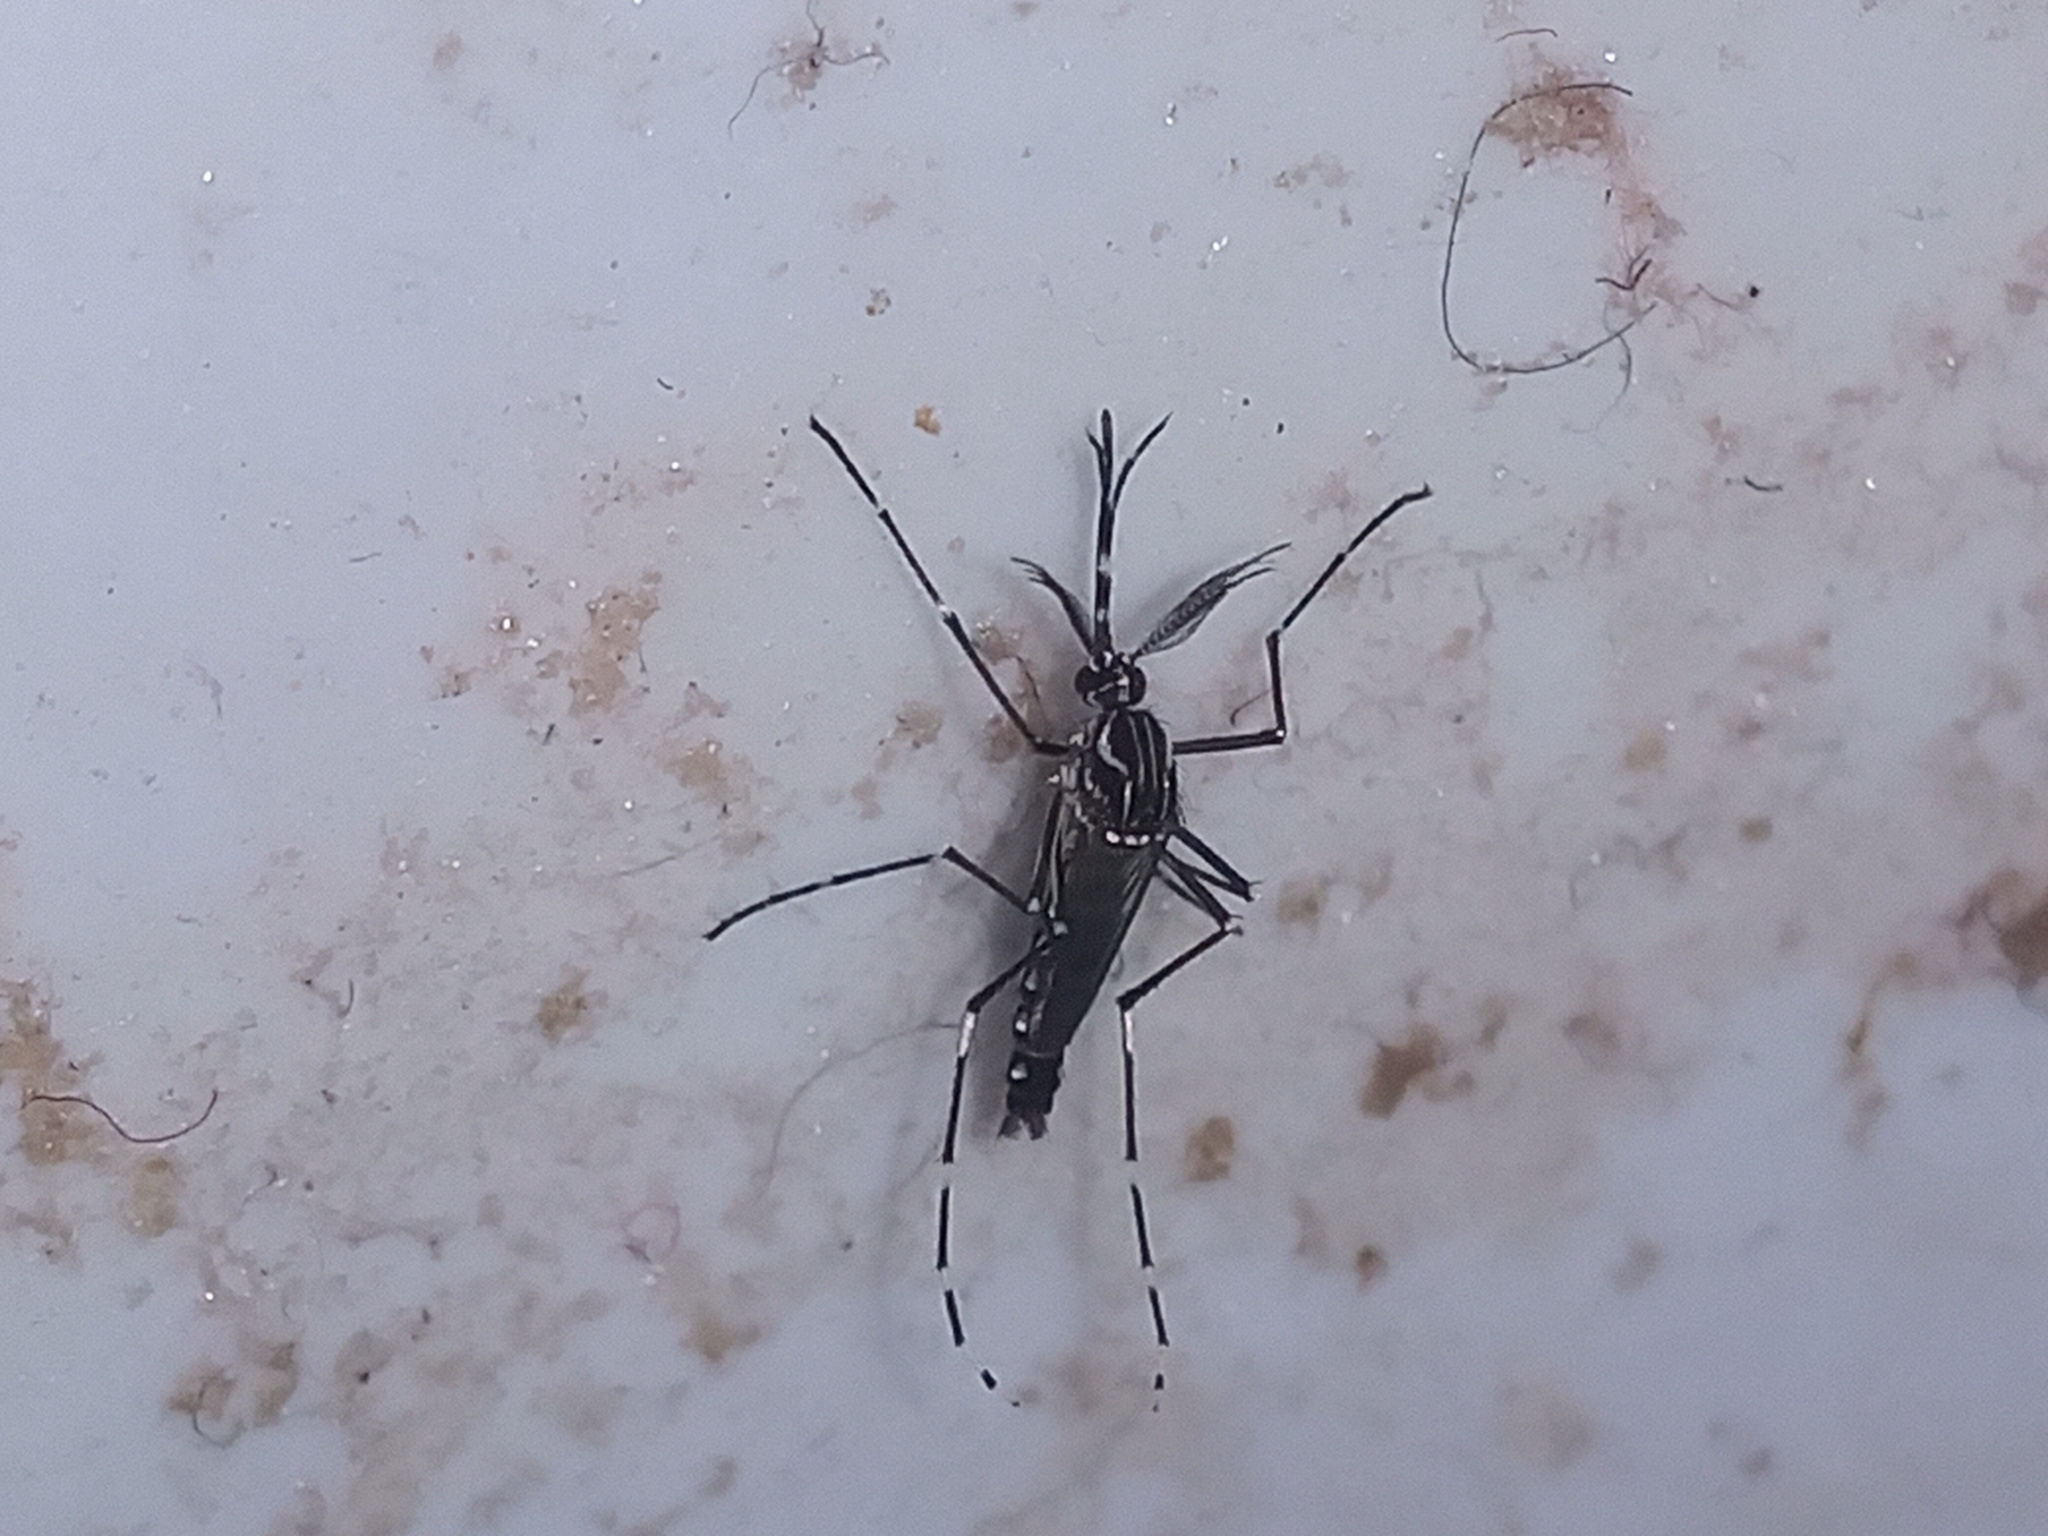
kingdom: Animalia
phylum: Arthropoda
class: Insecta
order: Diptera
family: Culicidae
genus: Aedes
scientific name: Aedes aegypti
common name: Yellow fever mosquito
